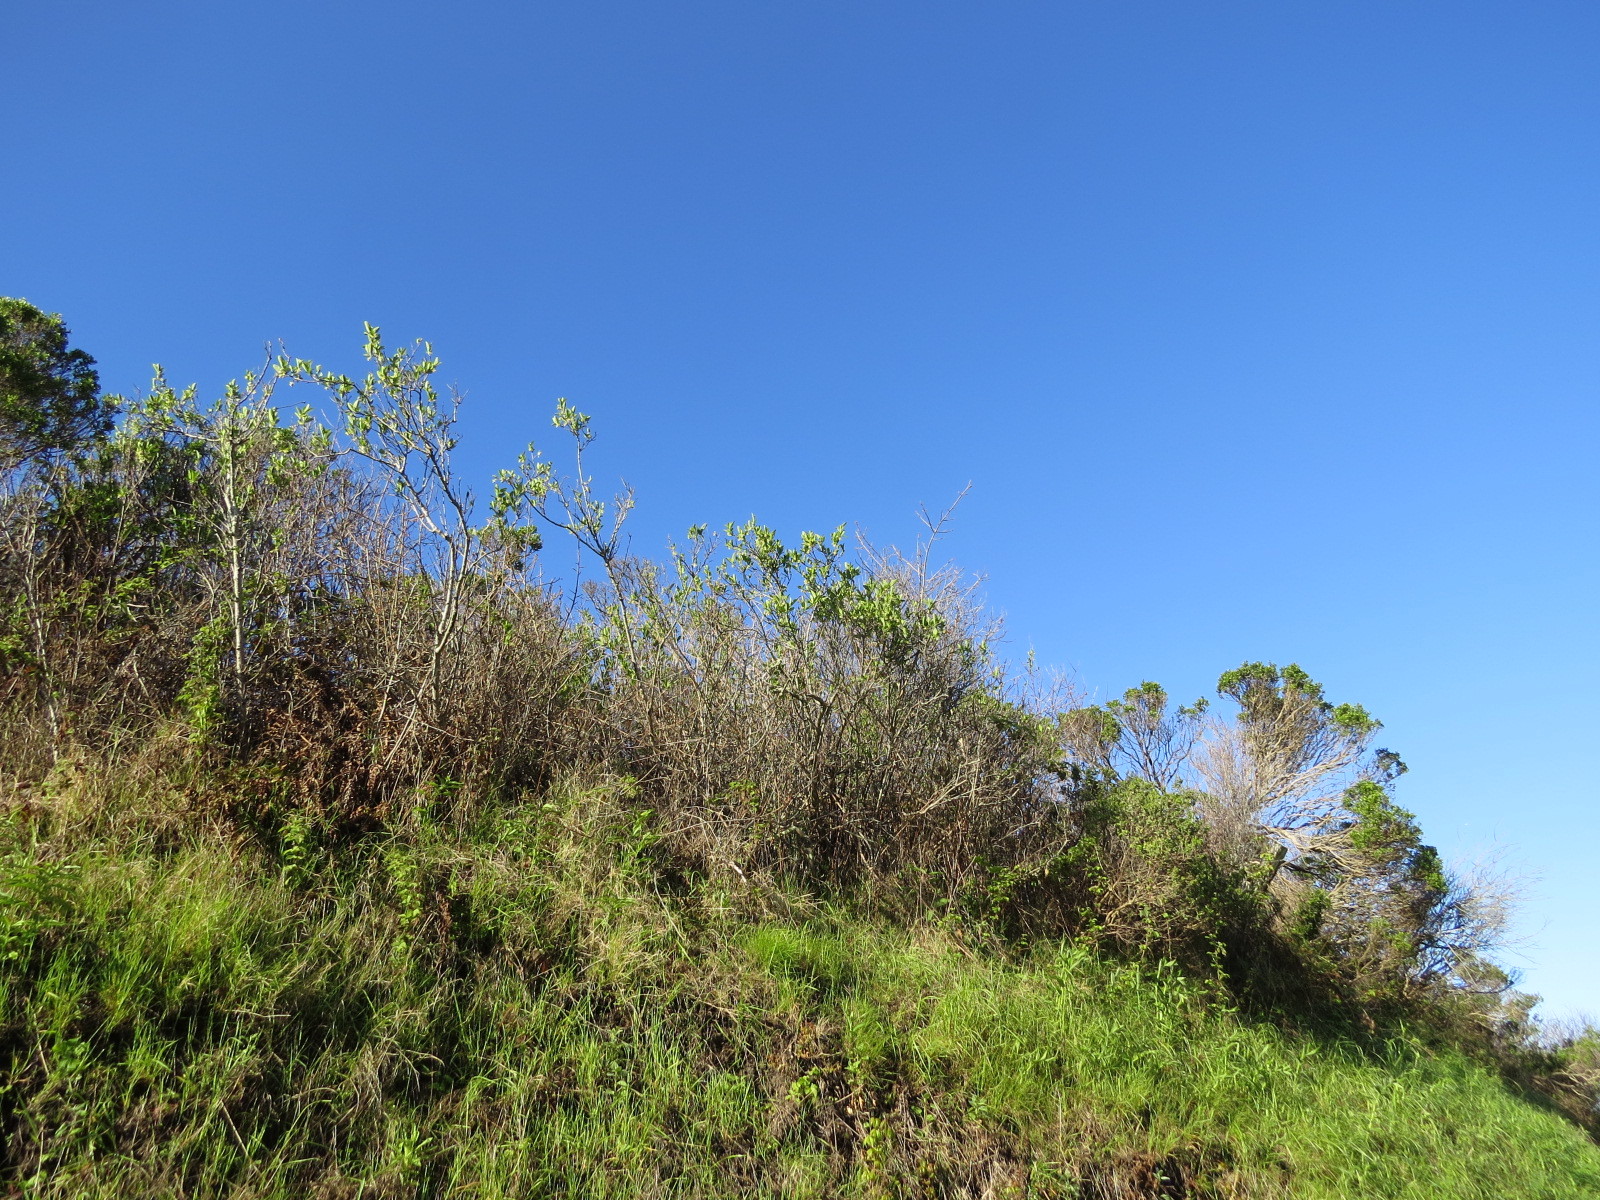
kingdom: Plantae
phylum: Tracheophyta
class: Magnoliopsida
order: Rosales
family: Rosaceae
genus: Oemleria
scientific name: Oemleria cerasiformis
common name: Osoberry
